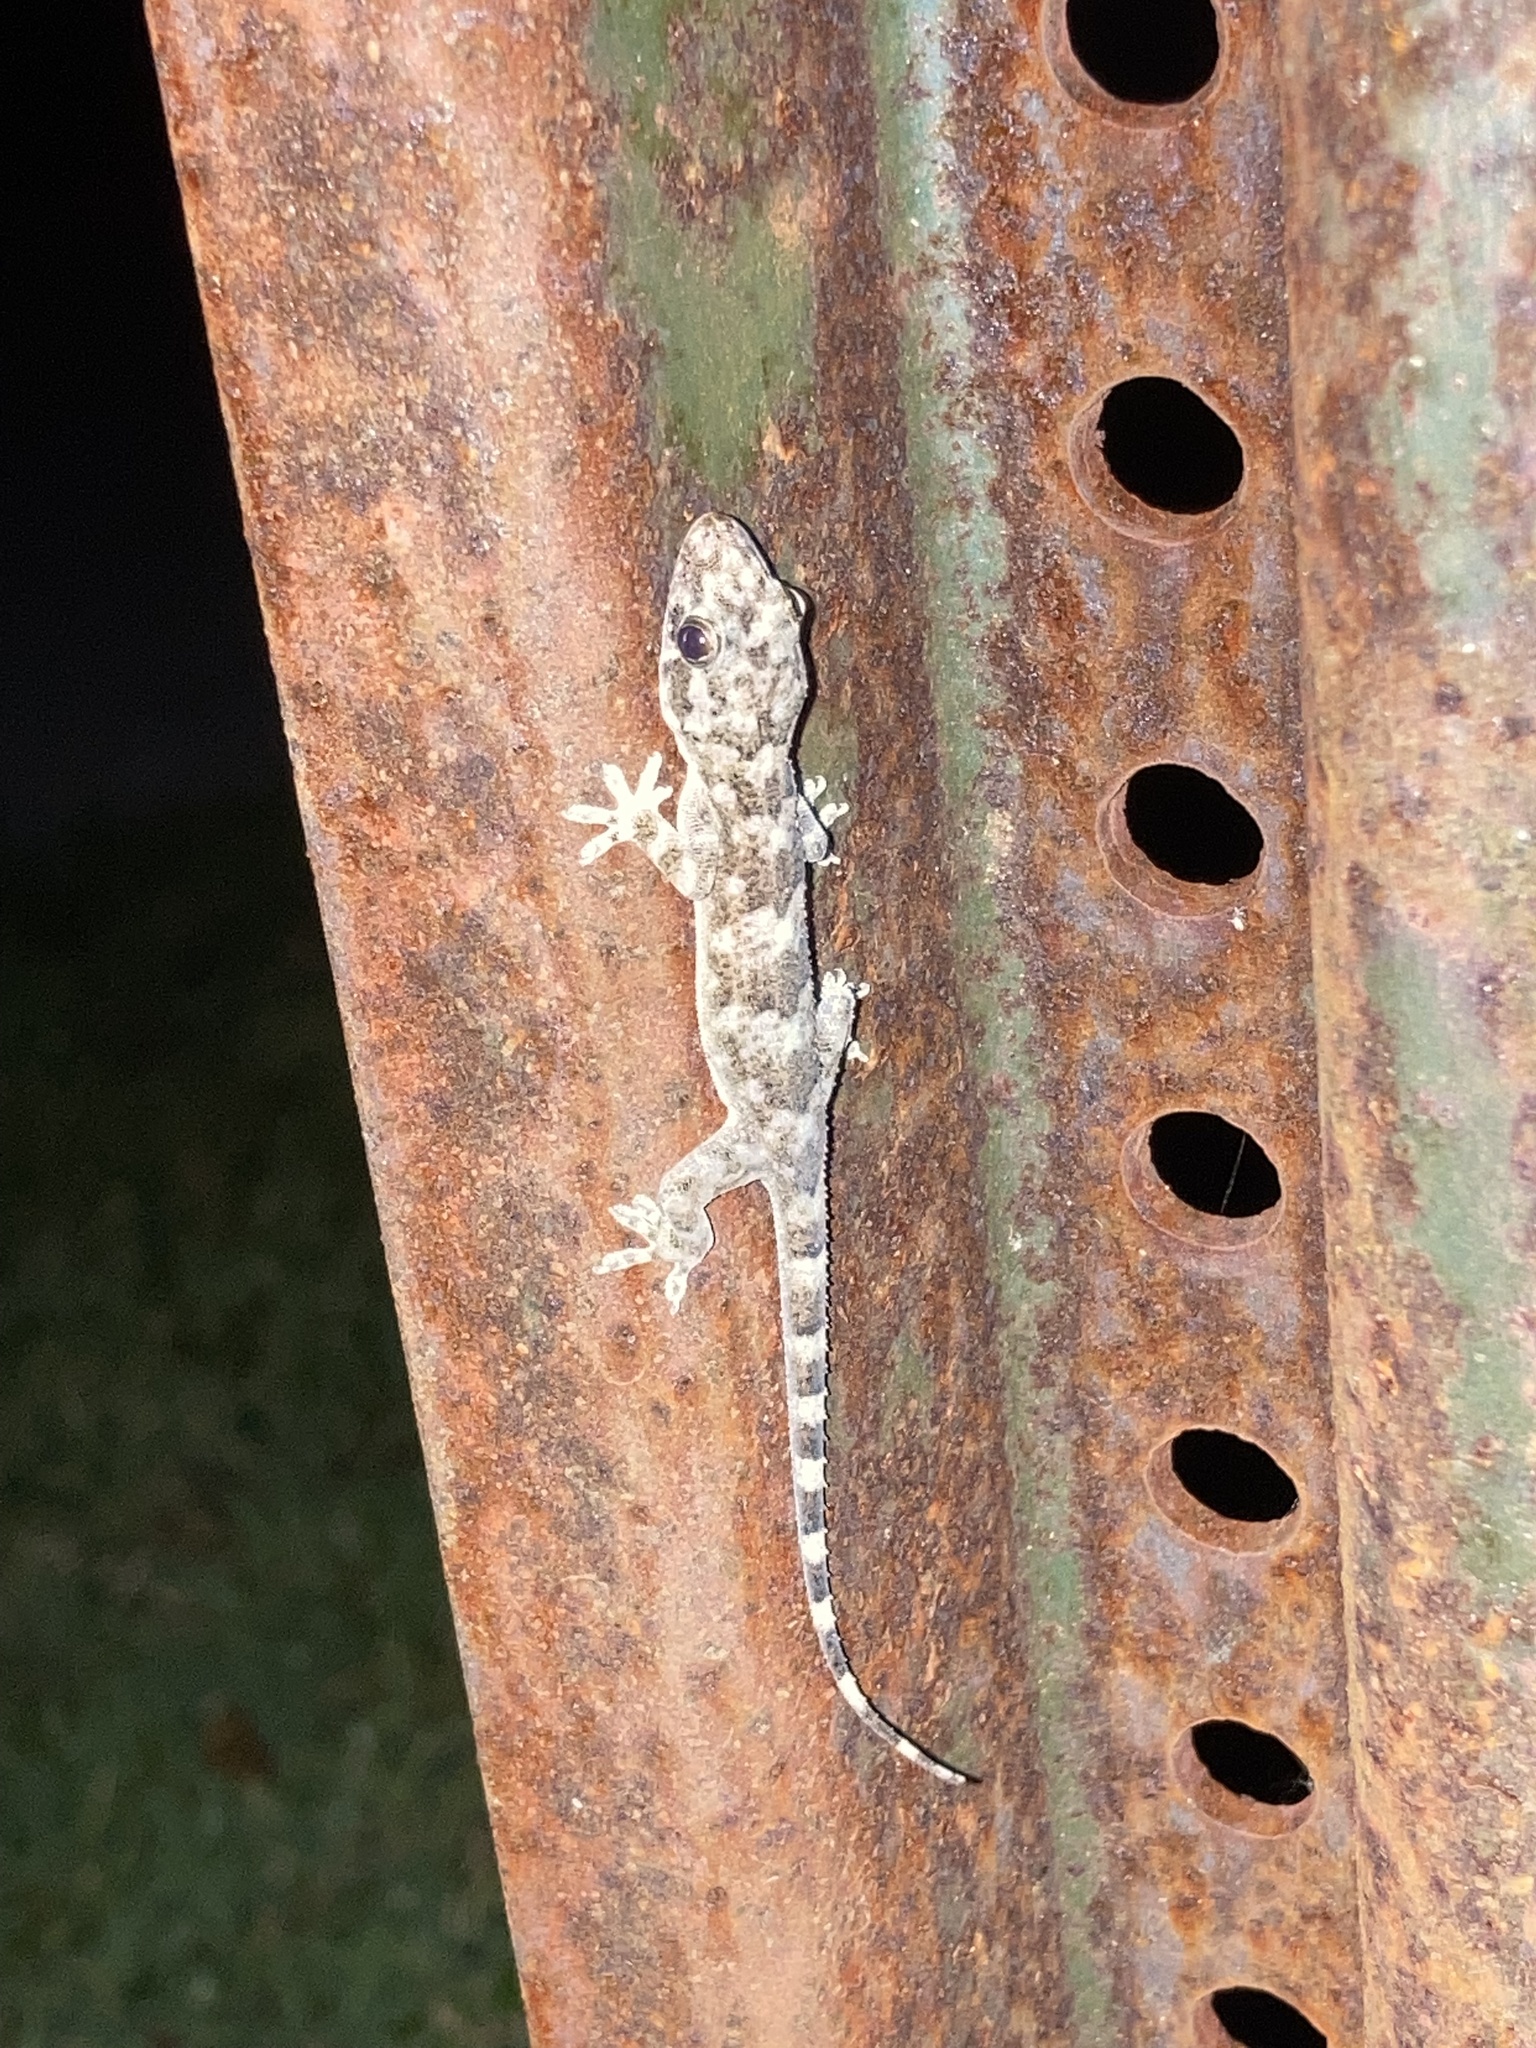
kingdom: Animalia
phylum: Chordata
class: Squamata
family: Gekkonidae
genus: Hemidactylus
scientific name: Hemidactylus mabouia
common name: House gecko
